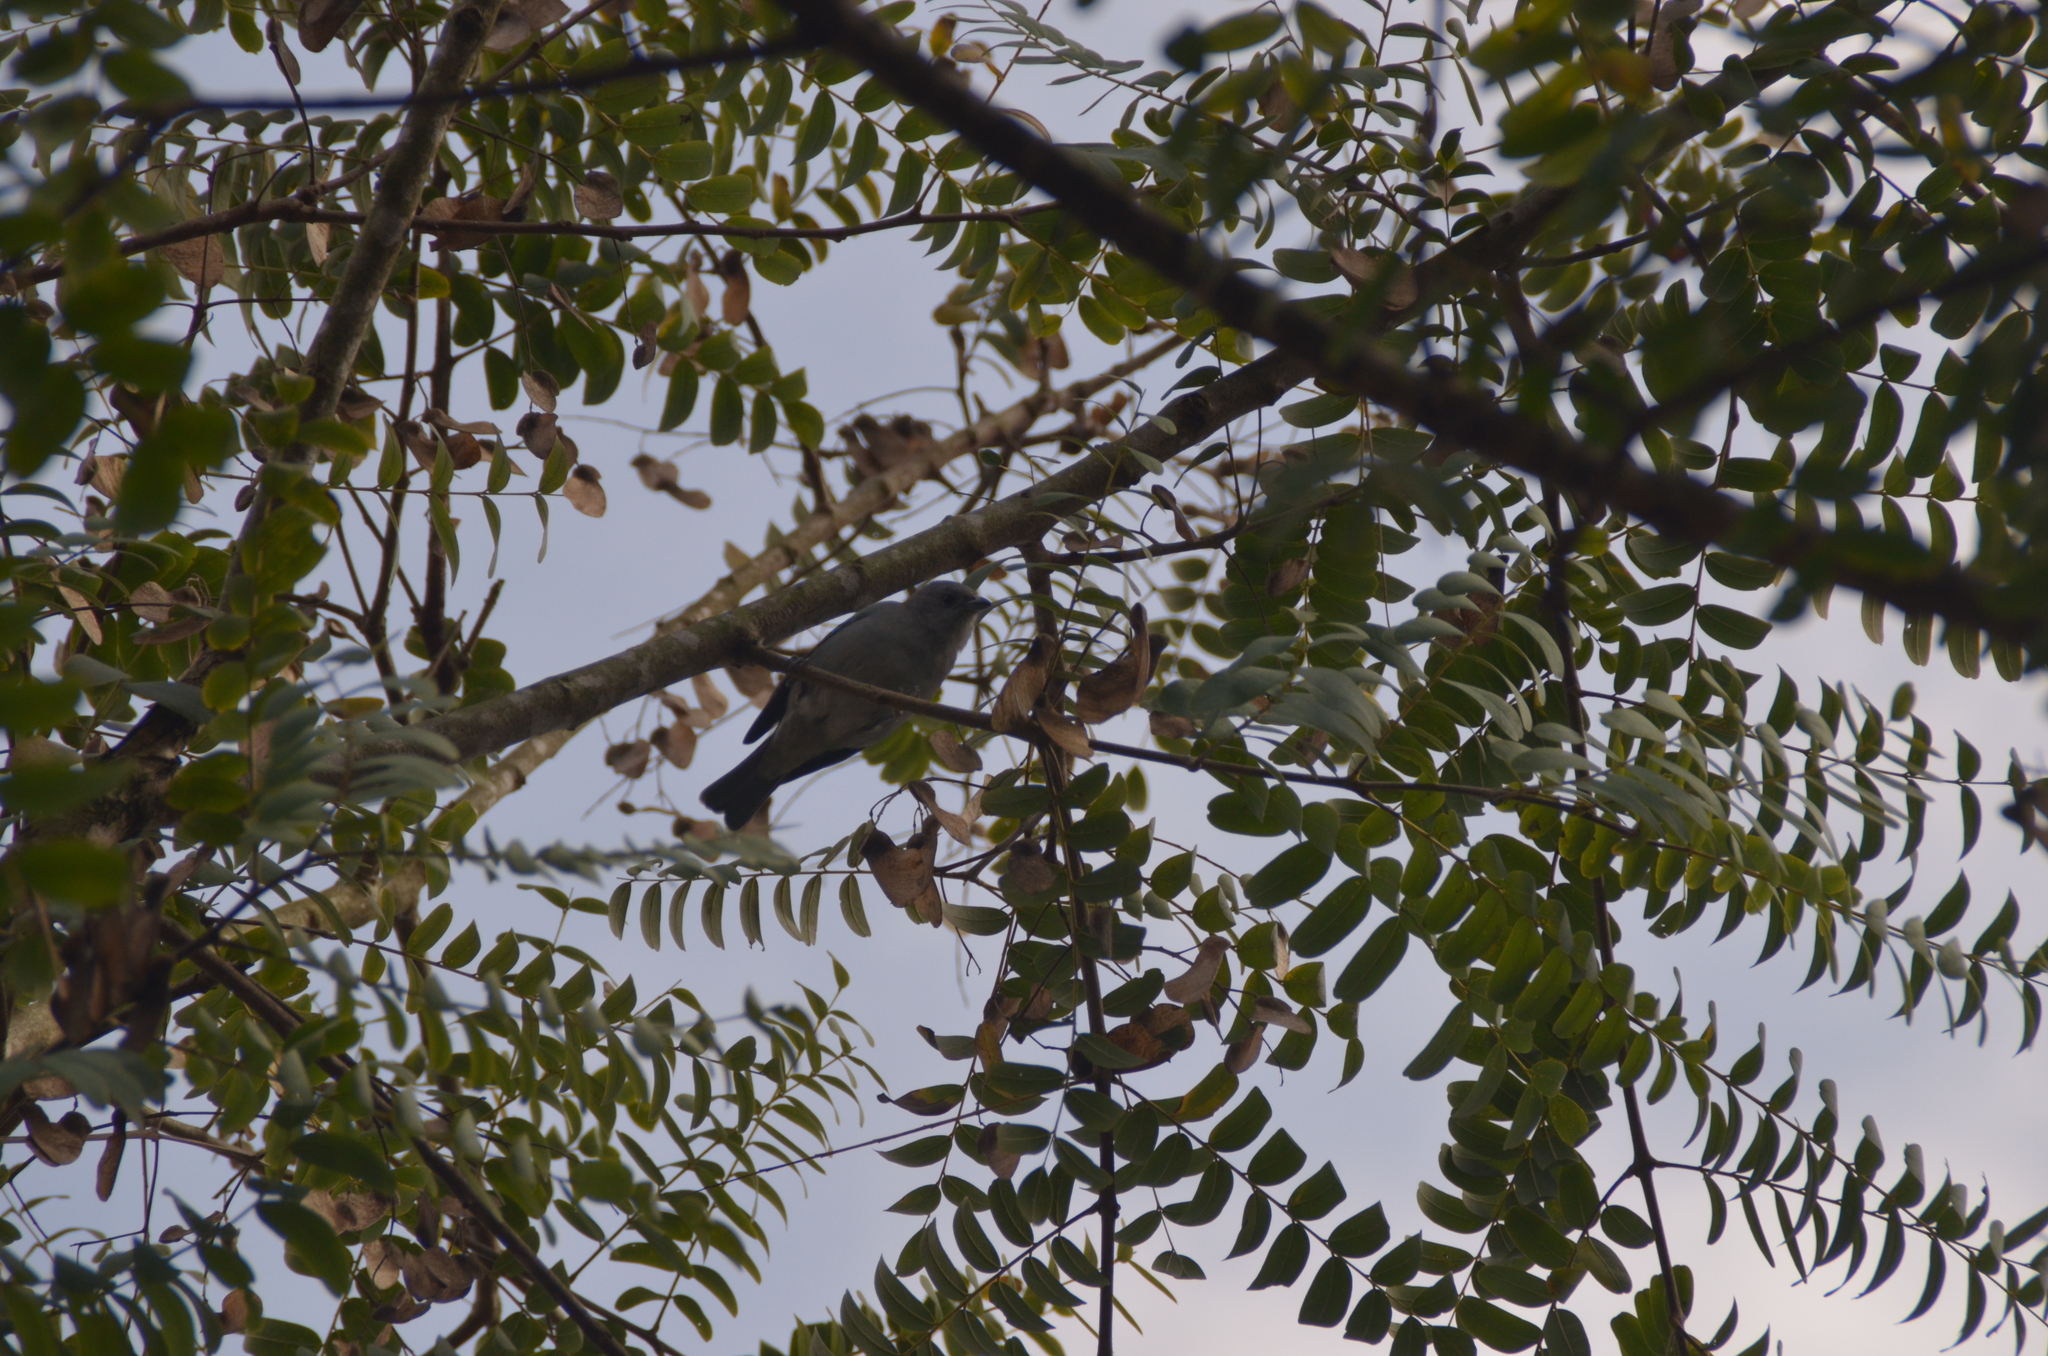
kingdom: Animalia
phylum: Chordata
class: Aves
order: Passeriformes
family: Thraupidae
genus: Thraupis
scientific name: Thraupis sayaca
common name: Sayaca tanager
